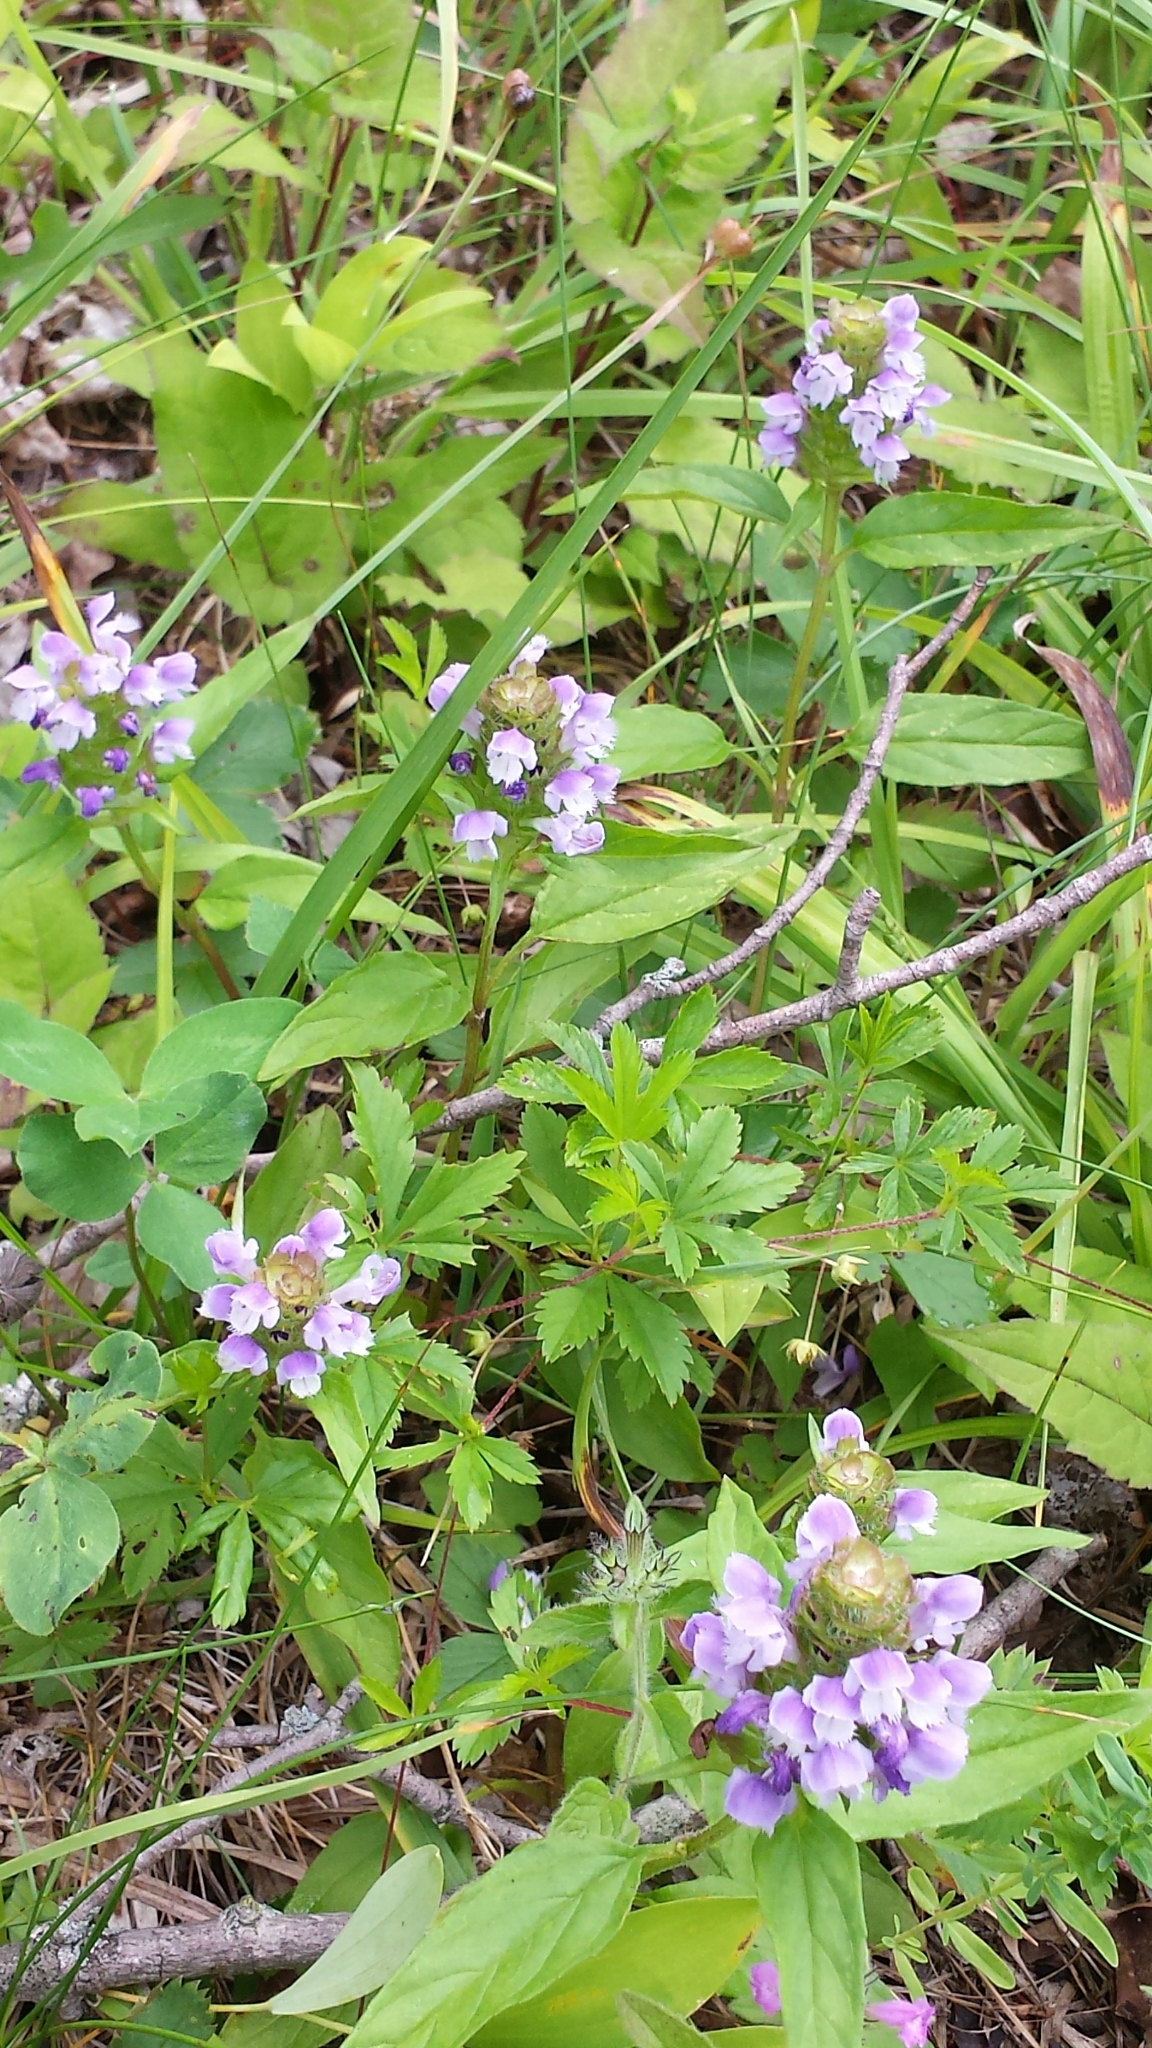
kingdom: Plantae
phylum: Tracheophyta
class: Magnoliopsida
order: Lamiales
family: Lamiaceae
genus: Prunella
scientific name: Prunella vulgaris
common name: Heal-all
